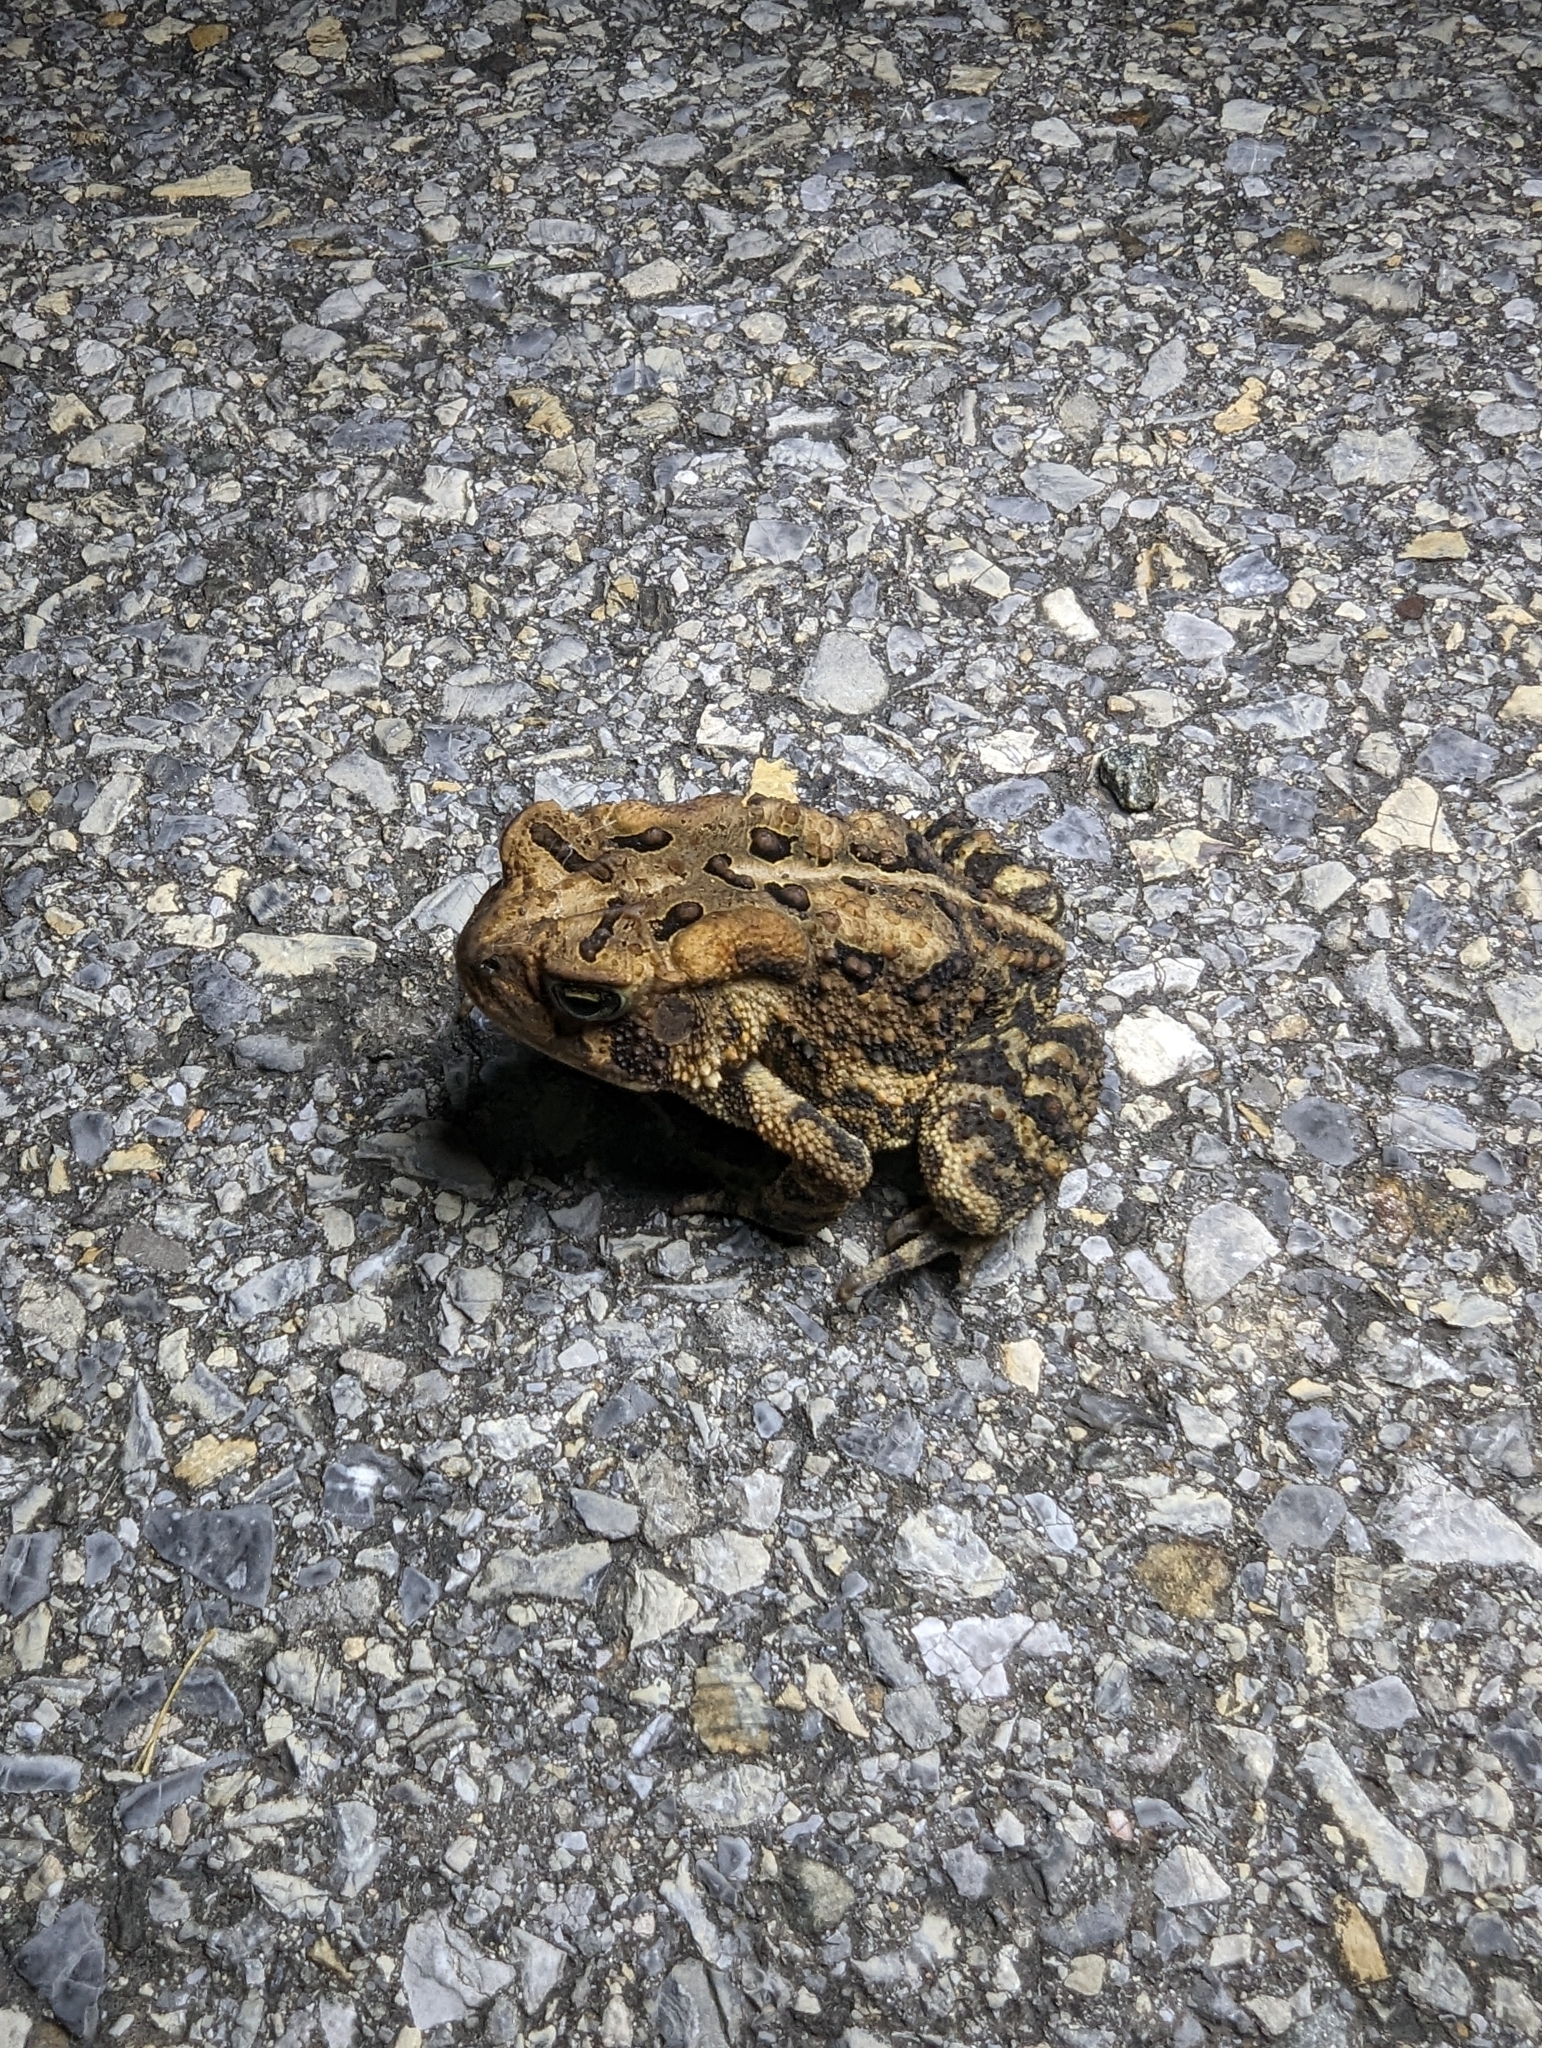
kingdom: Animalia
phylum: Chordata
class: Amphibia
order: Anura
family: Bufonidae
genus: Anaxyrus
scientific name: Anaxyrus americanus
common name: American toad
